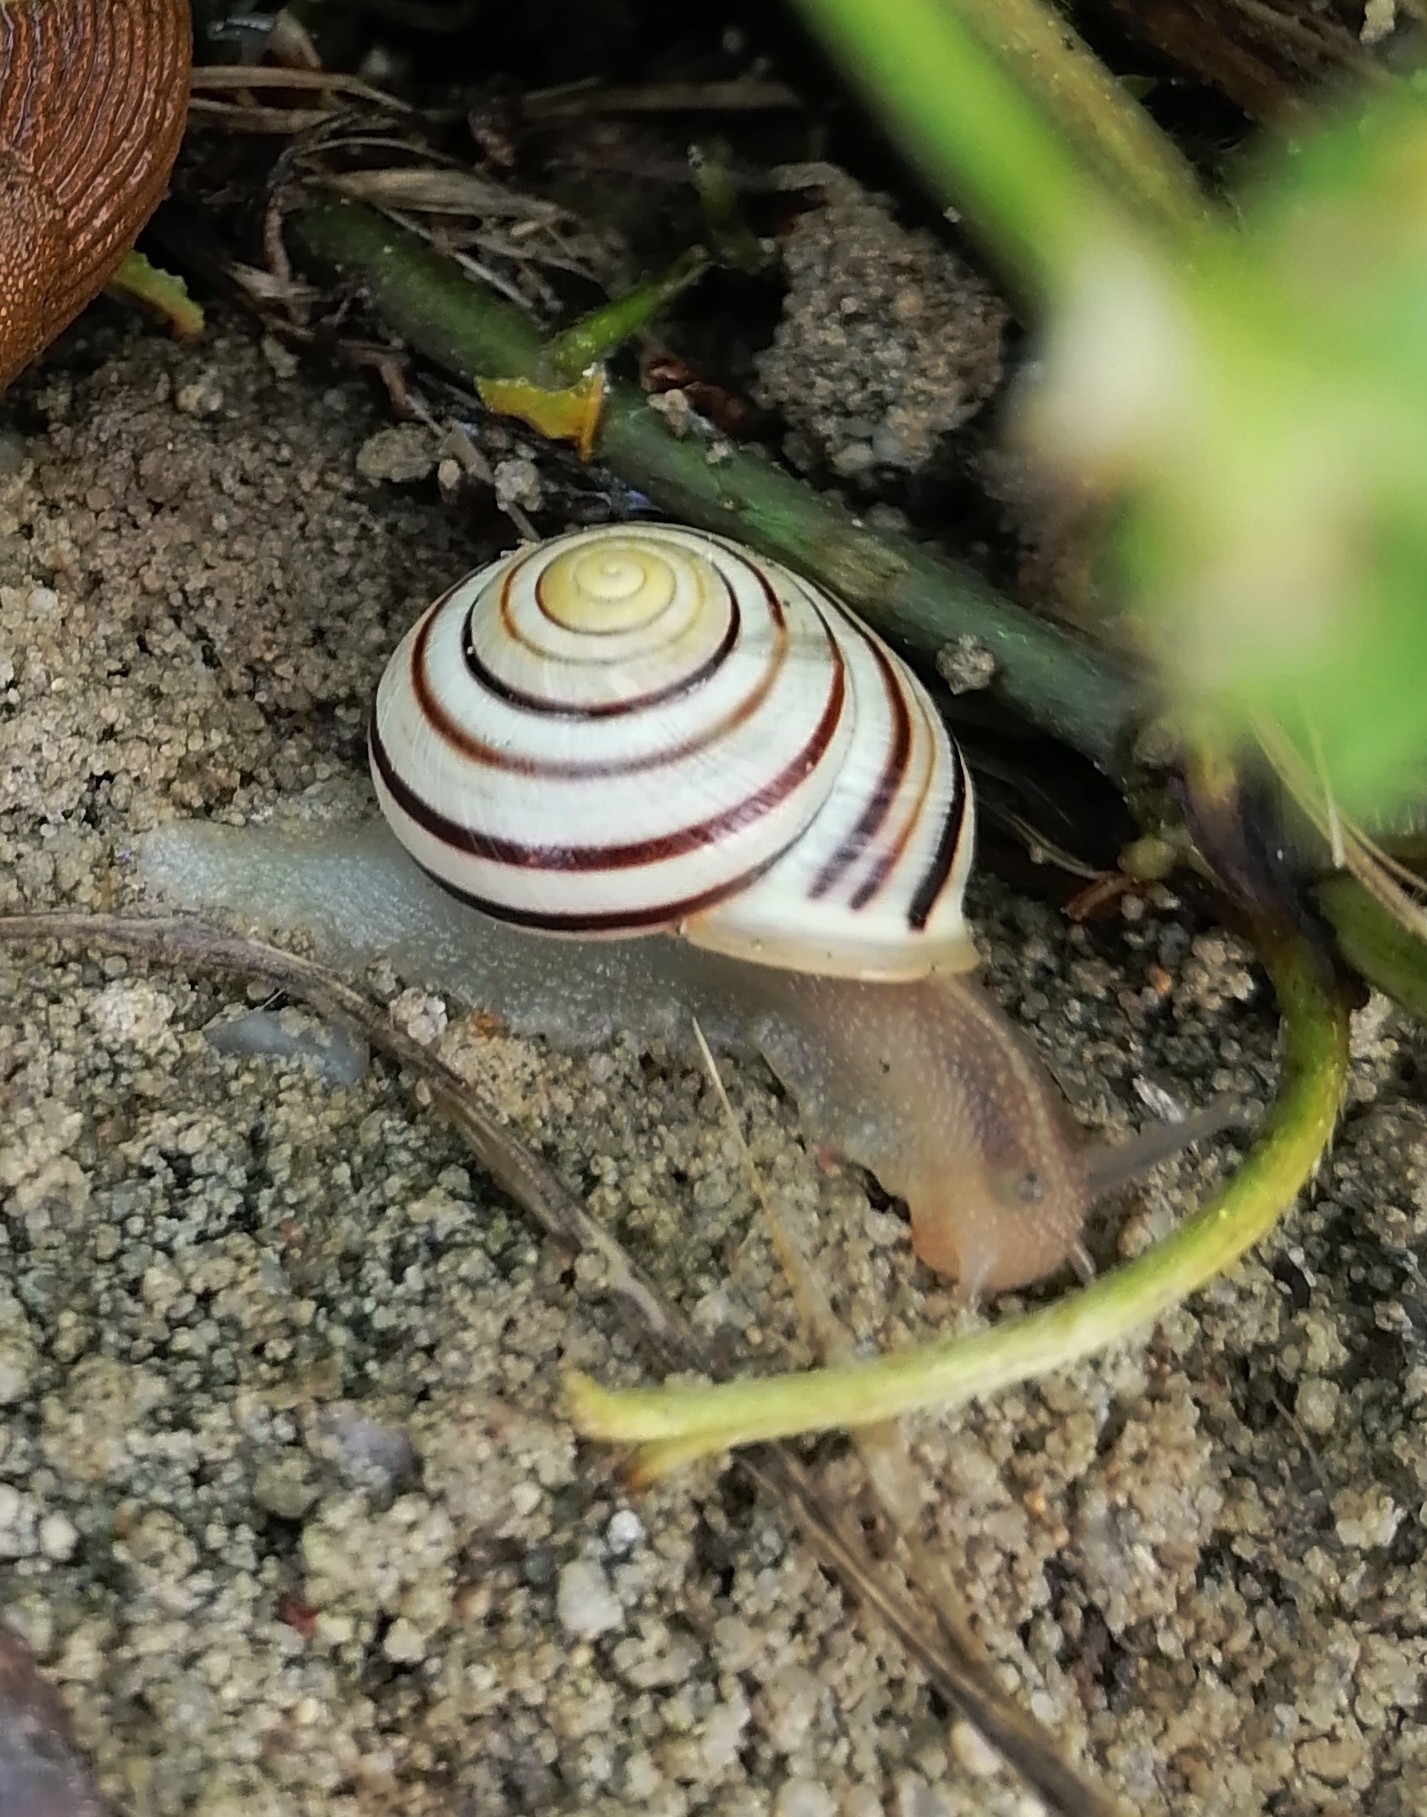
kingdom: Animalia
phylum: Mollusca
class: Gastropoda
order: Stylommatophora
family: Helicidae
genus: Cepaea
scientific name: Cepaea hortensis
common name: White-lip gardensnail
